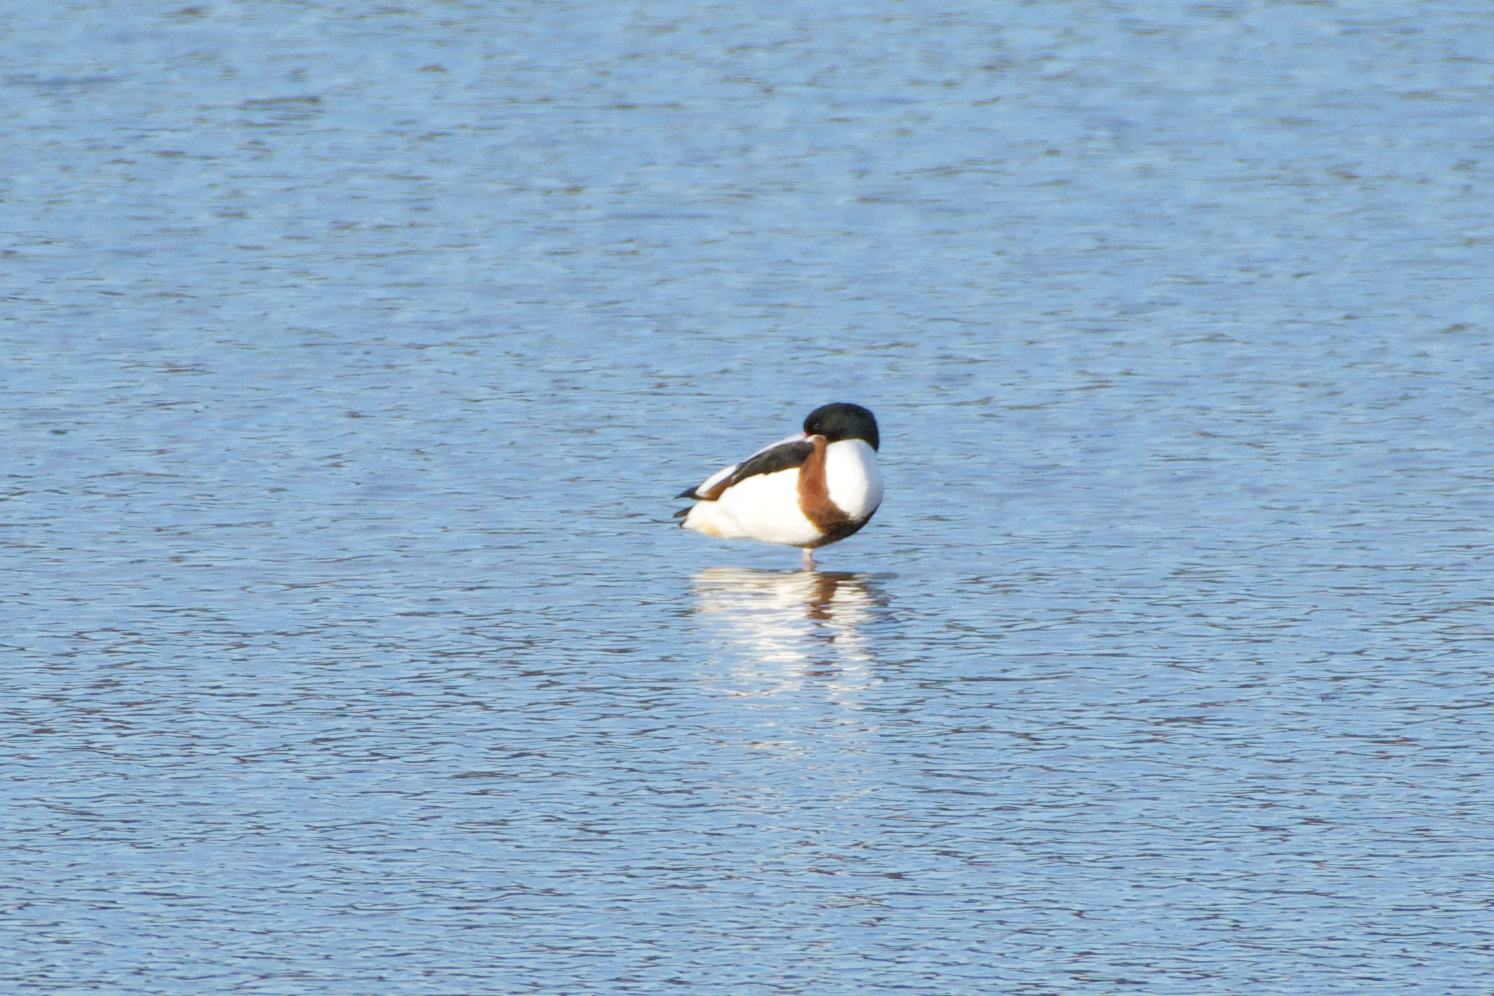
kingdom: Animalia
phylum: Chordata
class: Aves
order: Anseriformes
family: Anatidae
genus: Tadorna
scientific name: Tadorna tadorna
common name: Common shelduck
